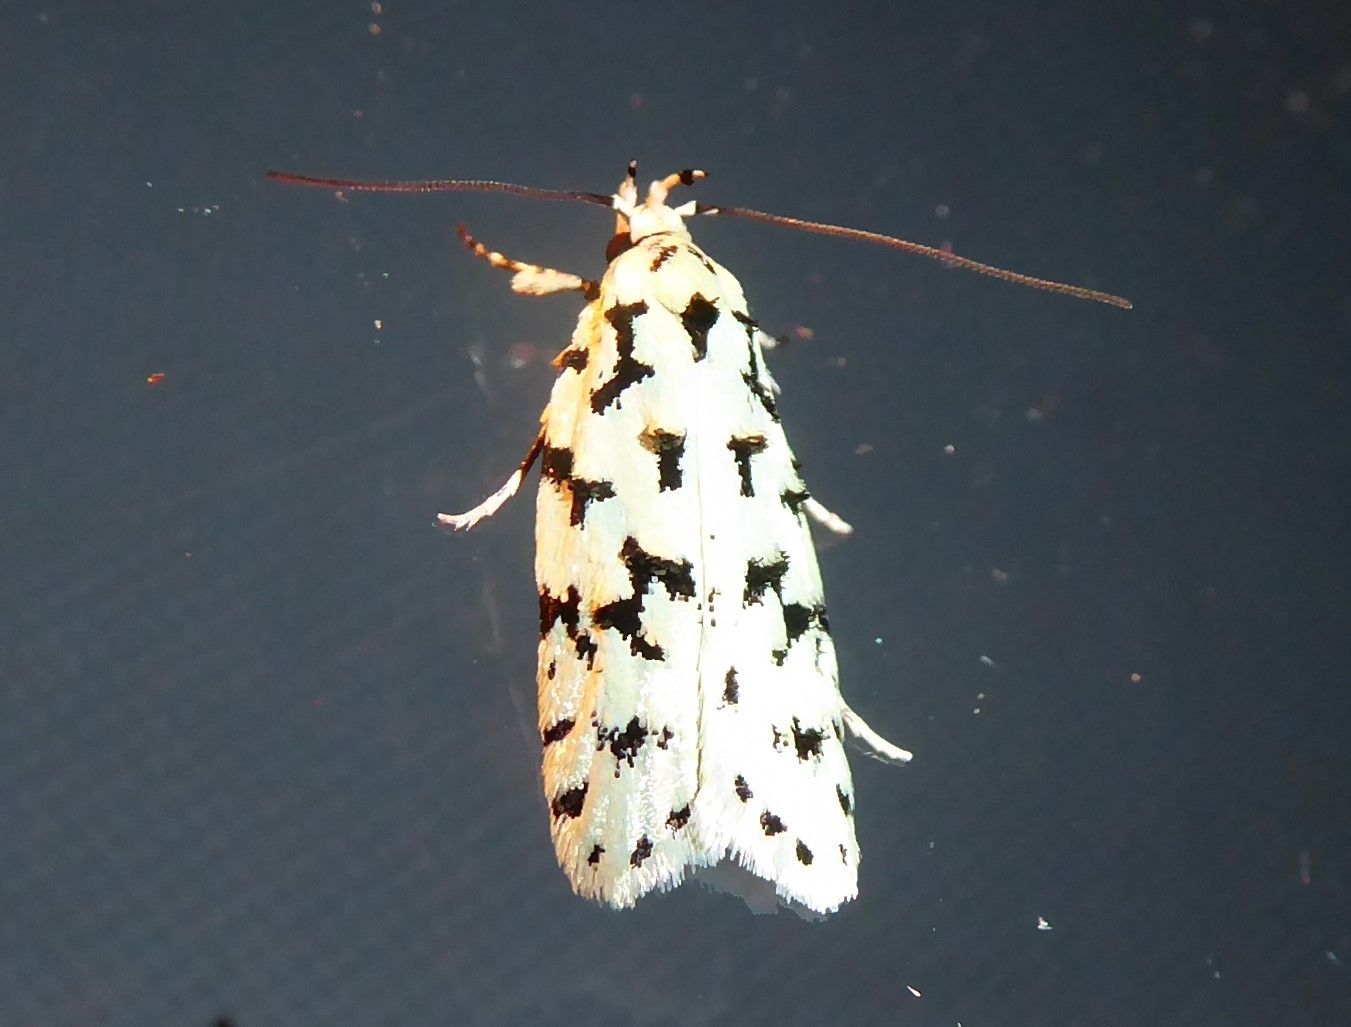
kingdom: Animalia
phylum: Arthropoda
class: Insecta
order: Lepidoptera
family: Oecophoridae
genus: Izatha
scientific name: Izatha huttoni
